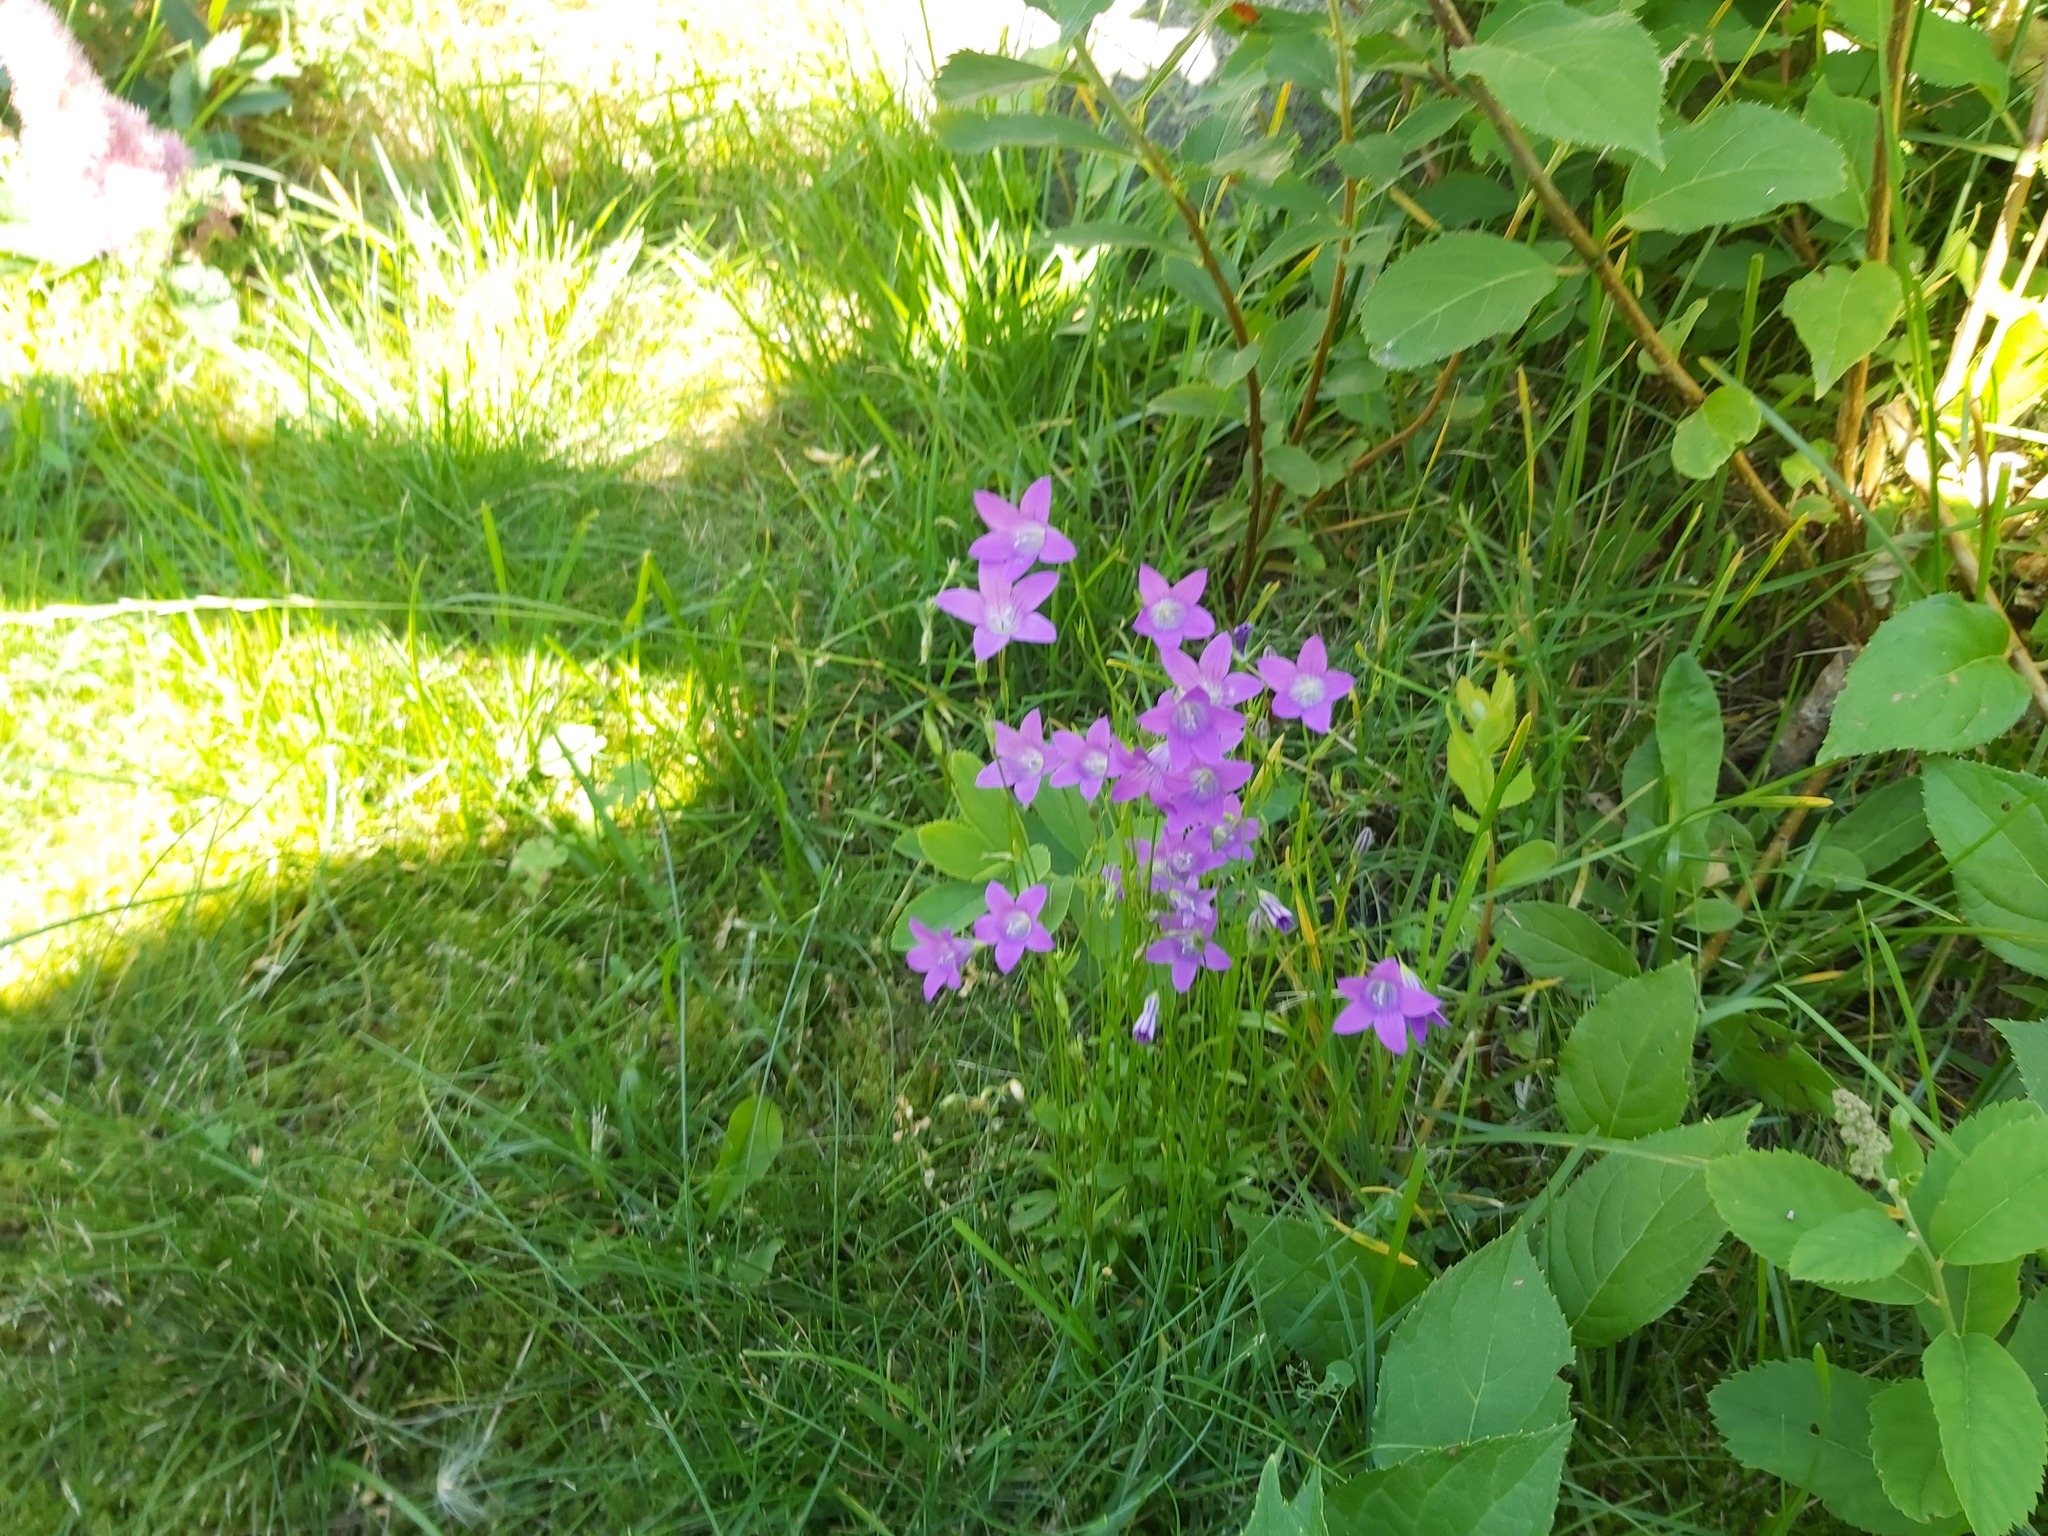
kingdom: Plantae
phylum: Tracheophyta
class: Magnoliopsida
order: Asterales
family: Campanulaceae
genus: Campanula
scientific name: Campanula patula
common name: Spreading bellflower
